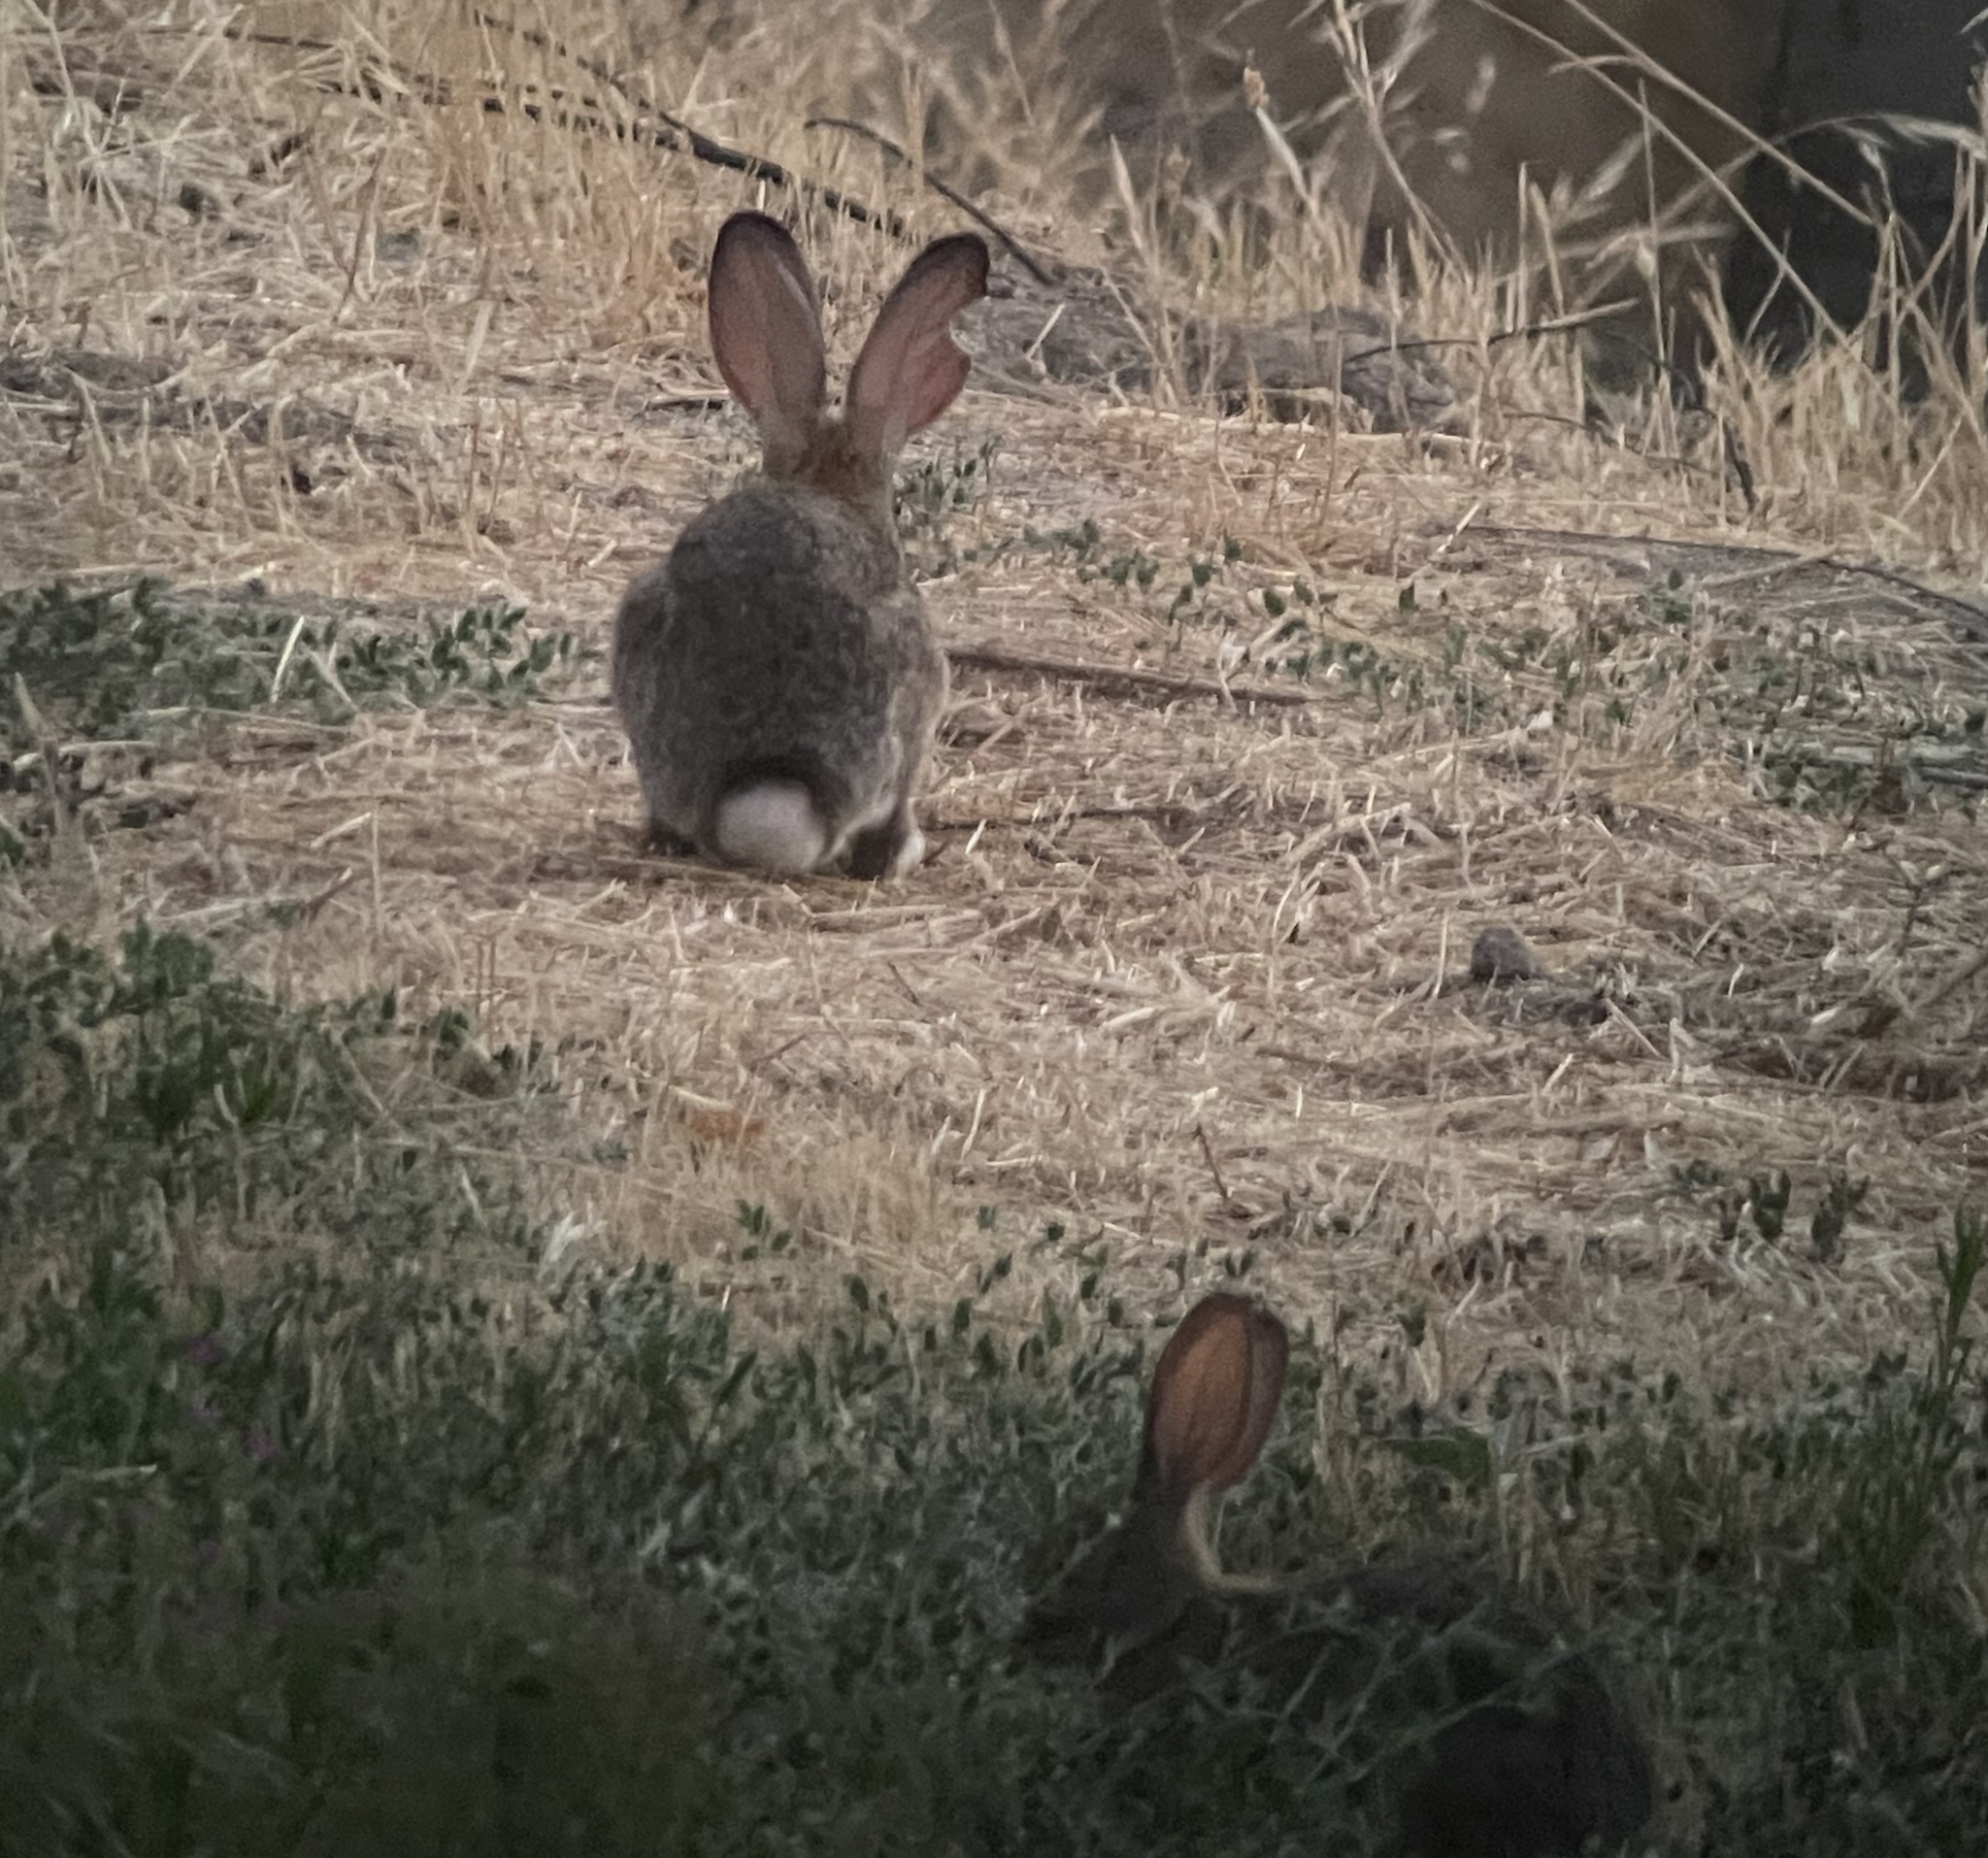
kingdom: Animalia
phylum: Chordata
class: Mammalia
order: Lagomorpha
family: Leporidae
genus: Sylvilagus
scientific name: Sylvilagus audubonii
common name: Desert cottontail
